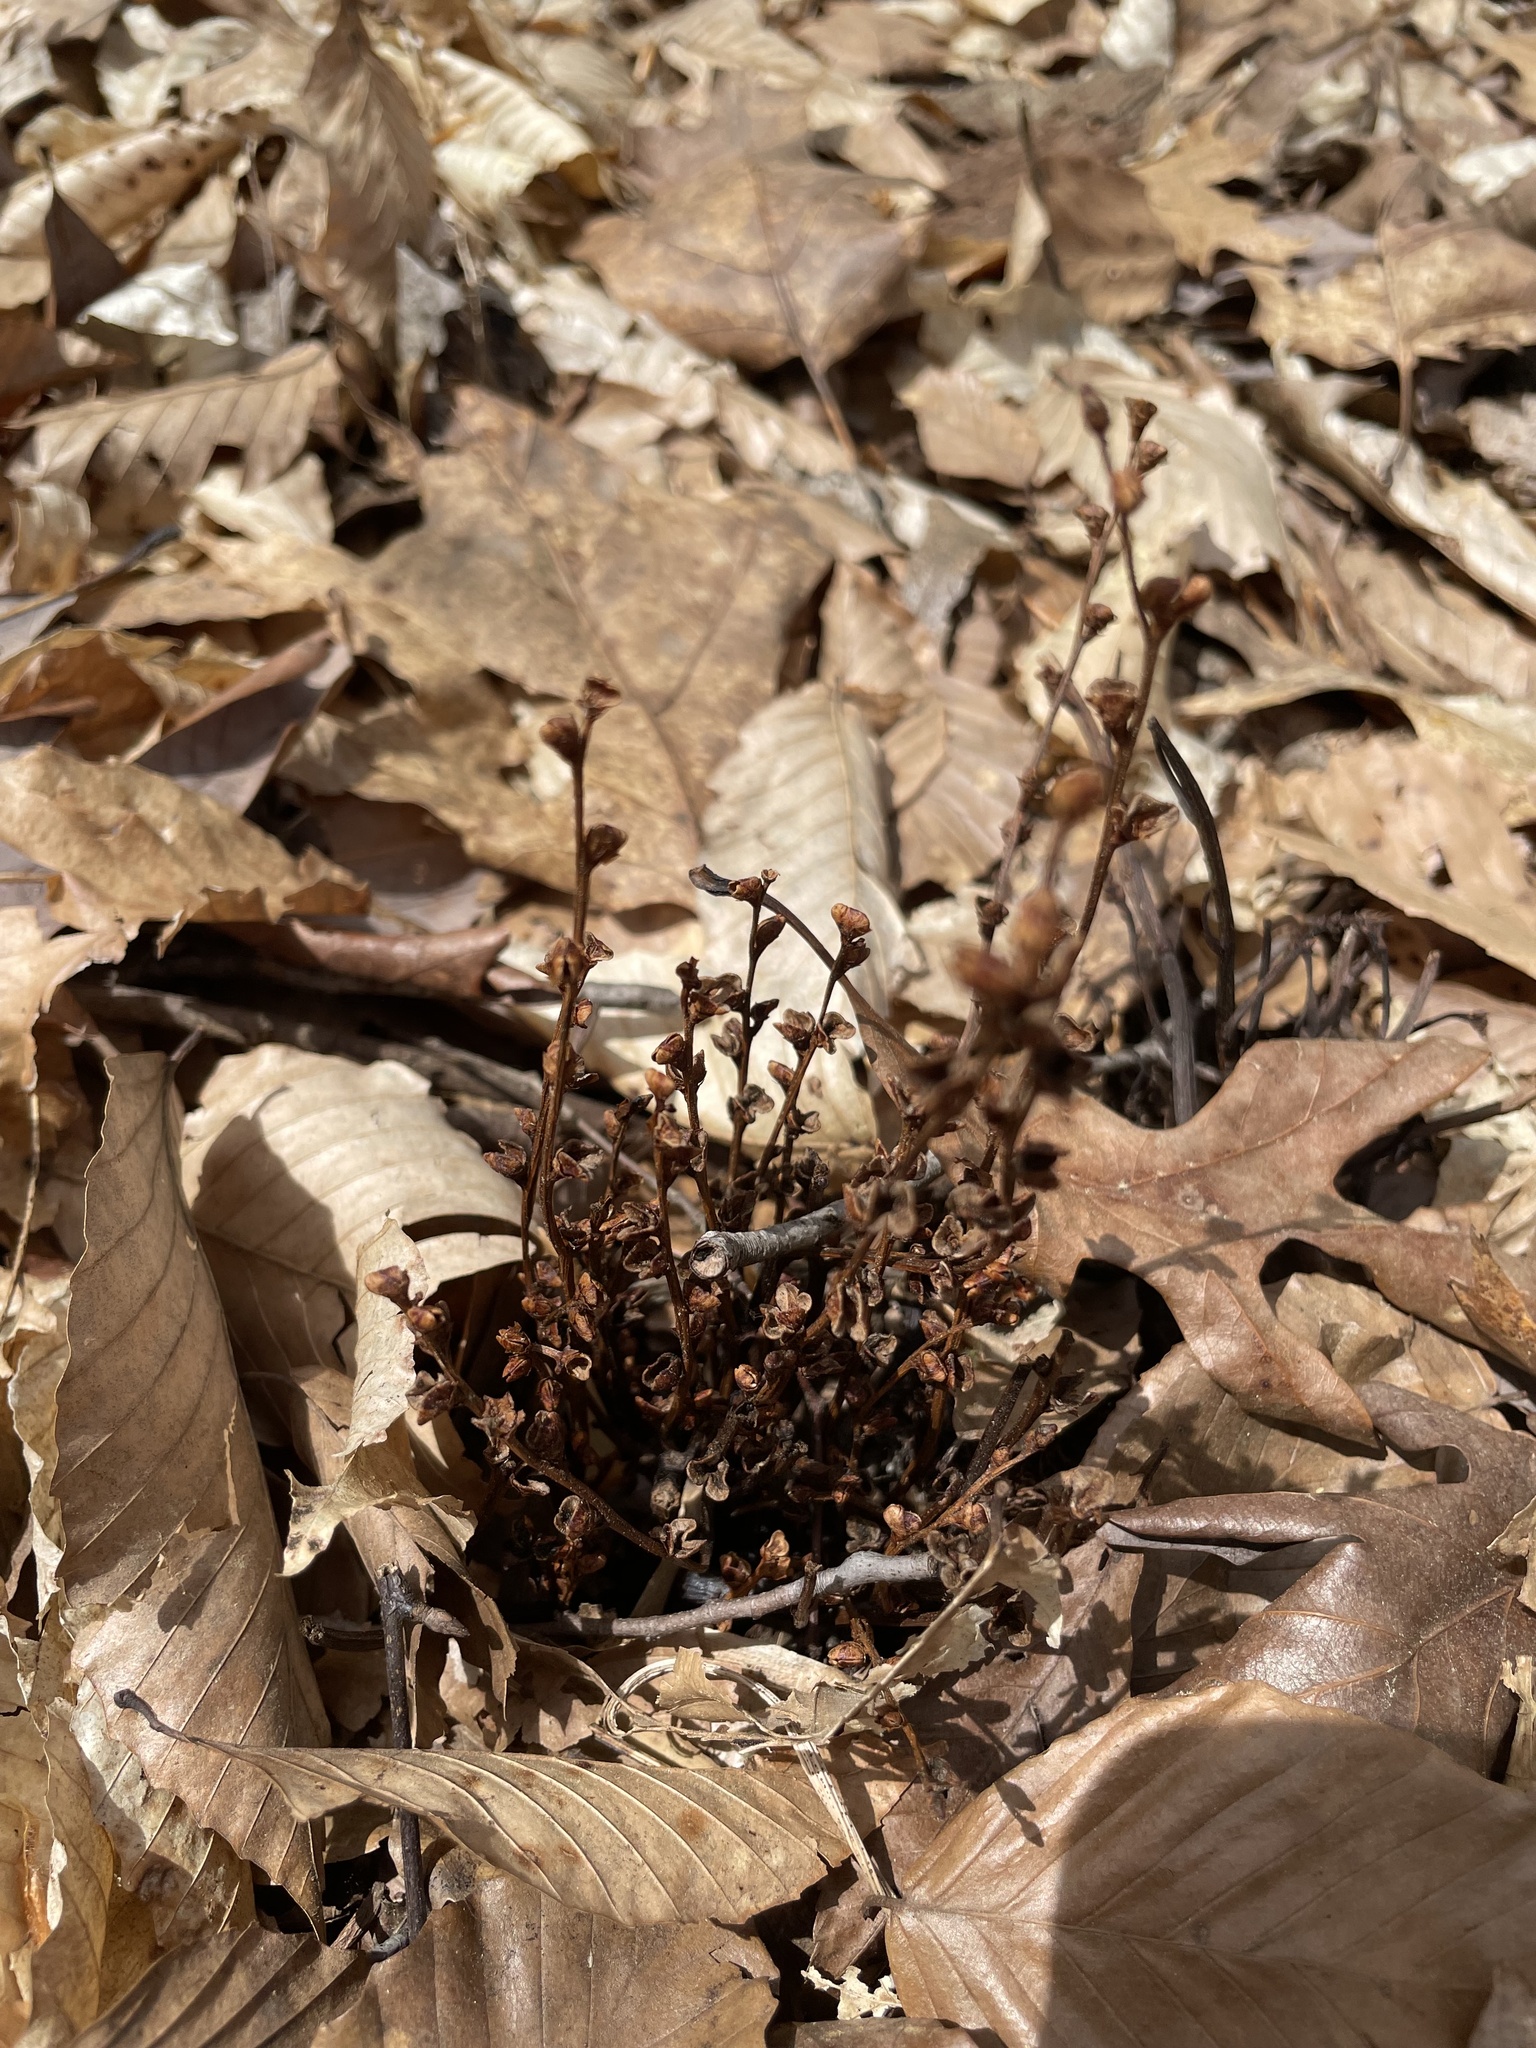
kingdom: Plantae
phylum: Tracheophyta
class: Magnoliopsida
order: Lamiales
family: Orobanchaceae
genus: Epifagus
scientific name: Epifagus virginiana
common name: Beechdrops
